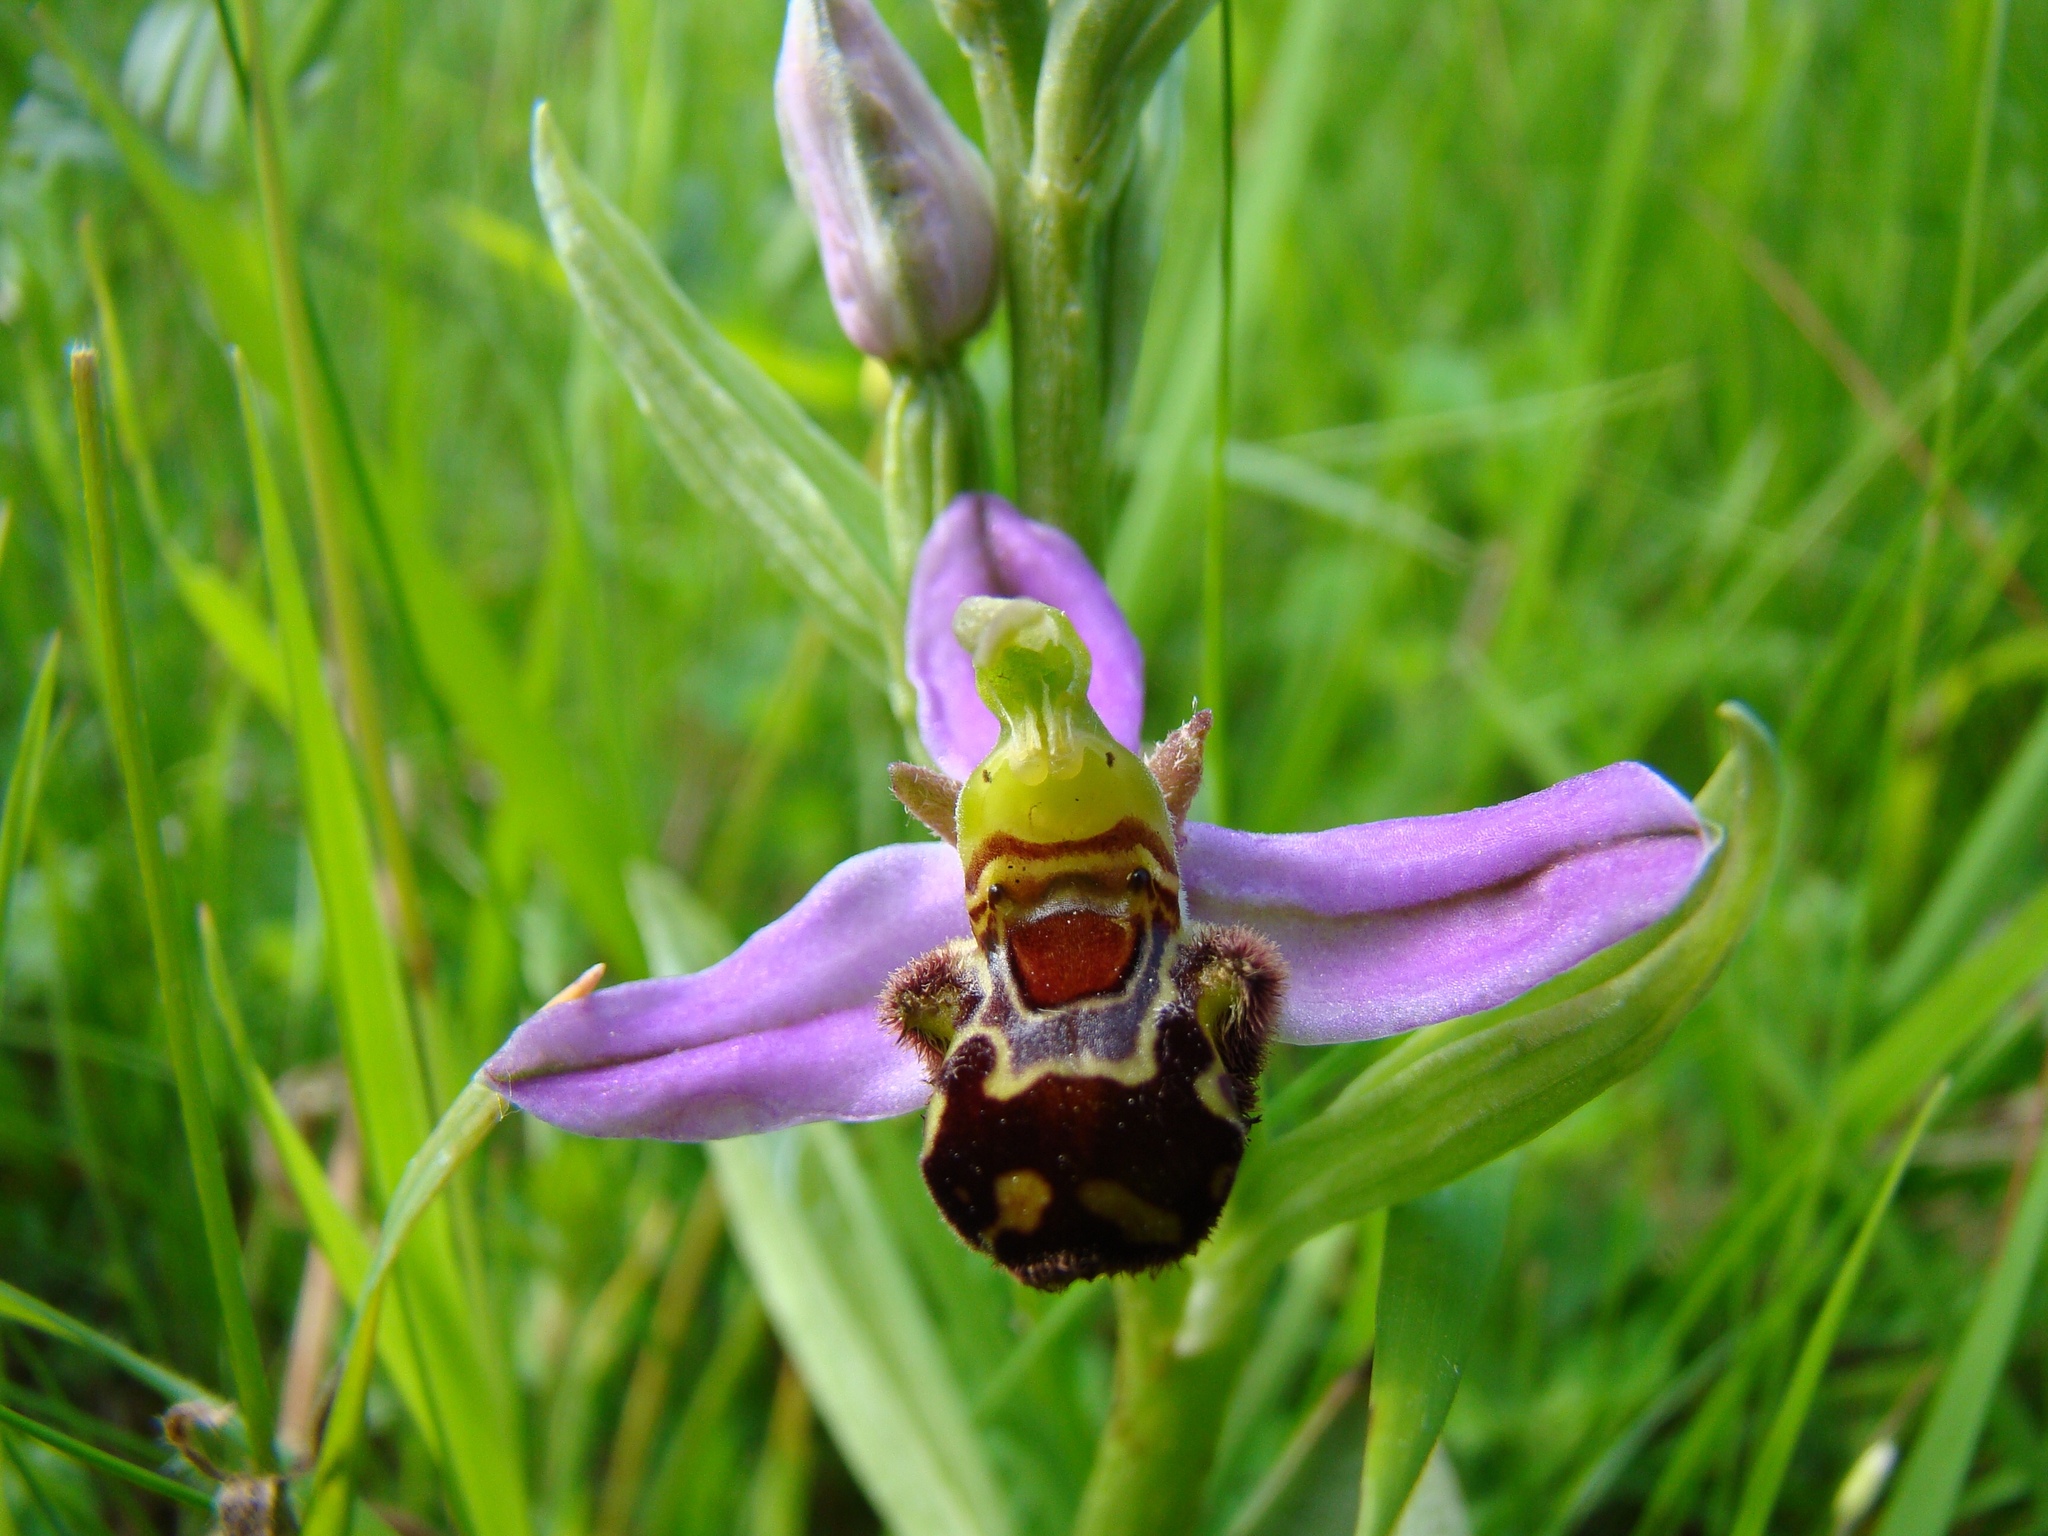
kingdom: Plantae
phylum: Tracheophyta
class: Liliopsida
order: Asparagales
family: Orchidaceae
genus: Ophrys
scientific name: Ophrys apifera
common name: Bee orchid
